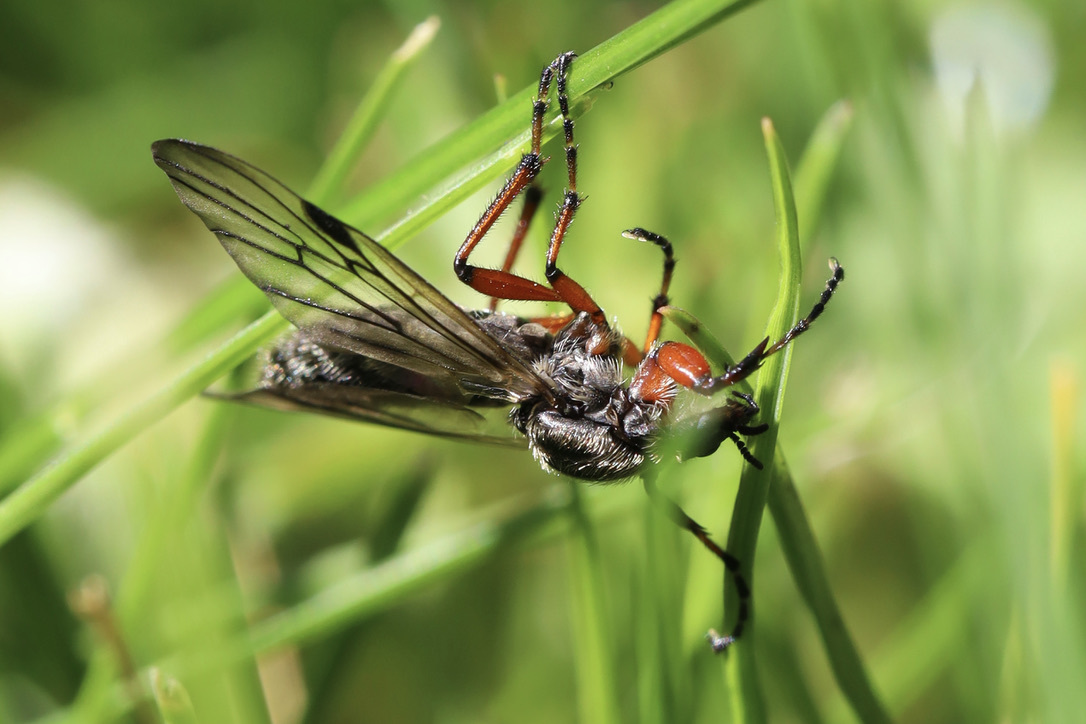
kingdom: Animalia
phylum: Arthropoda
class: Insecta
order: Diptera
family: Bibionidae
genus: Bibio
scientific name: Bibio
